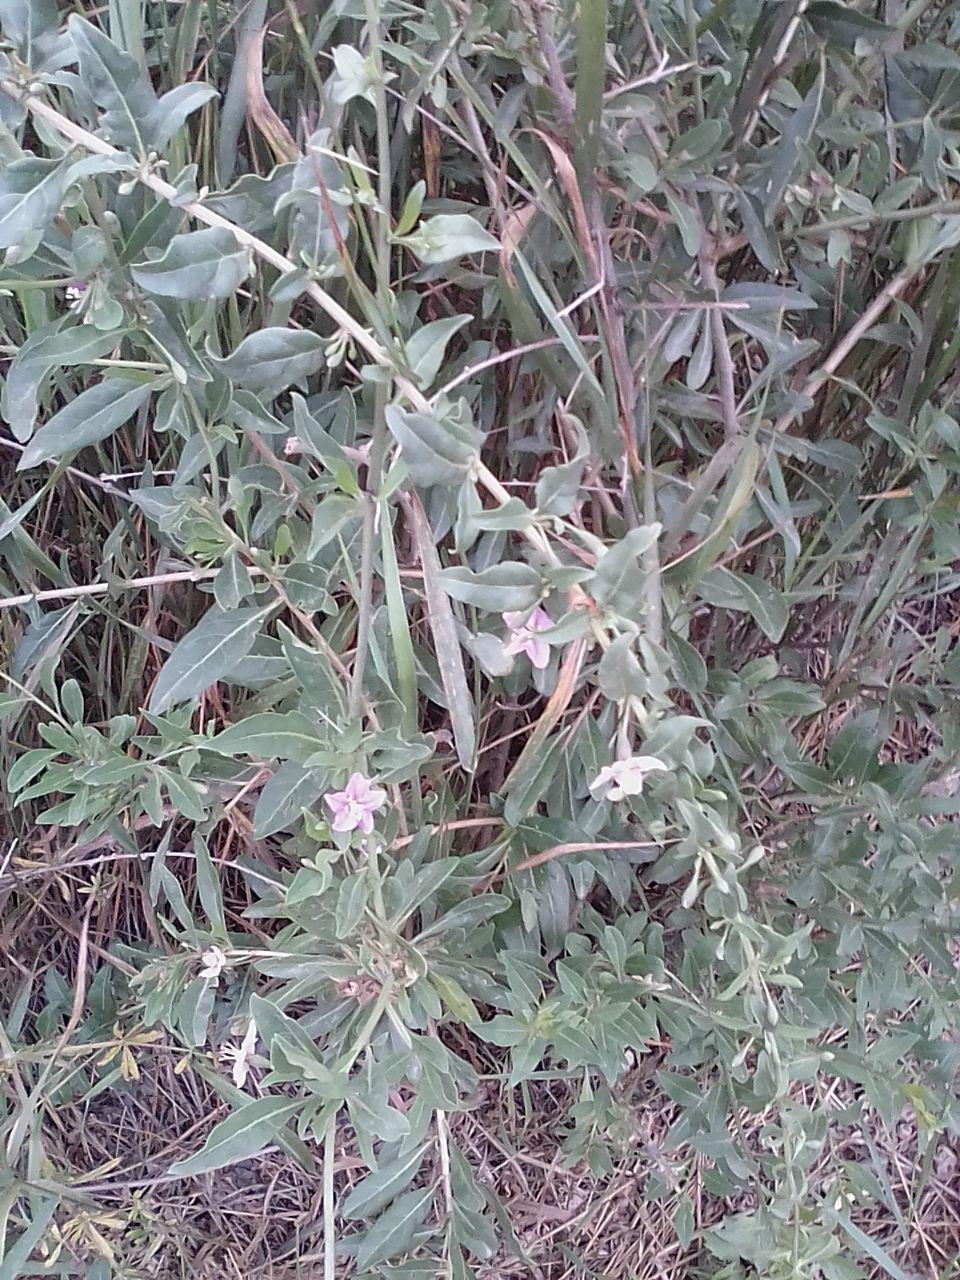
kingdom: Plantae
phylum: Tracheophyta
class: Magnoliopsida
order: Solanales
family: Solanaceae
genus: Lycium
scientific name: Lycium barbarum
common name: Duke of argyll's teaplant
